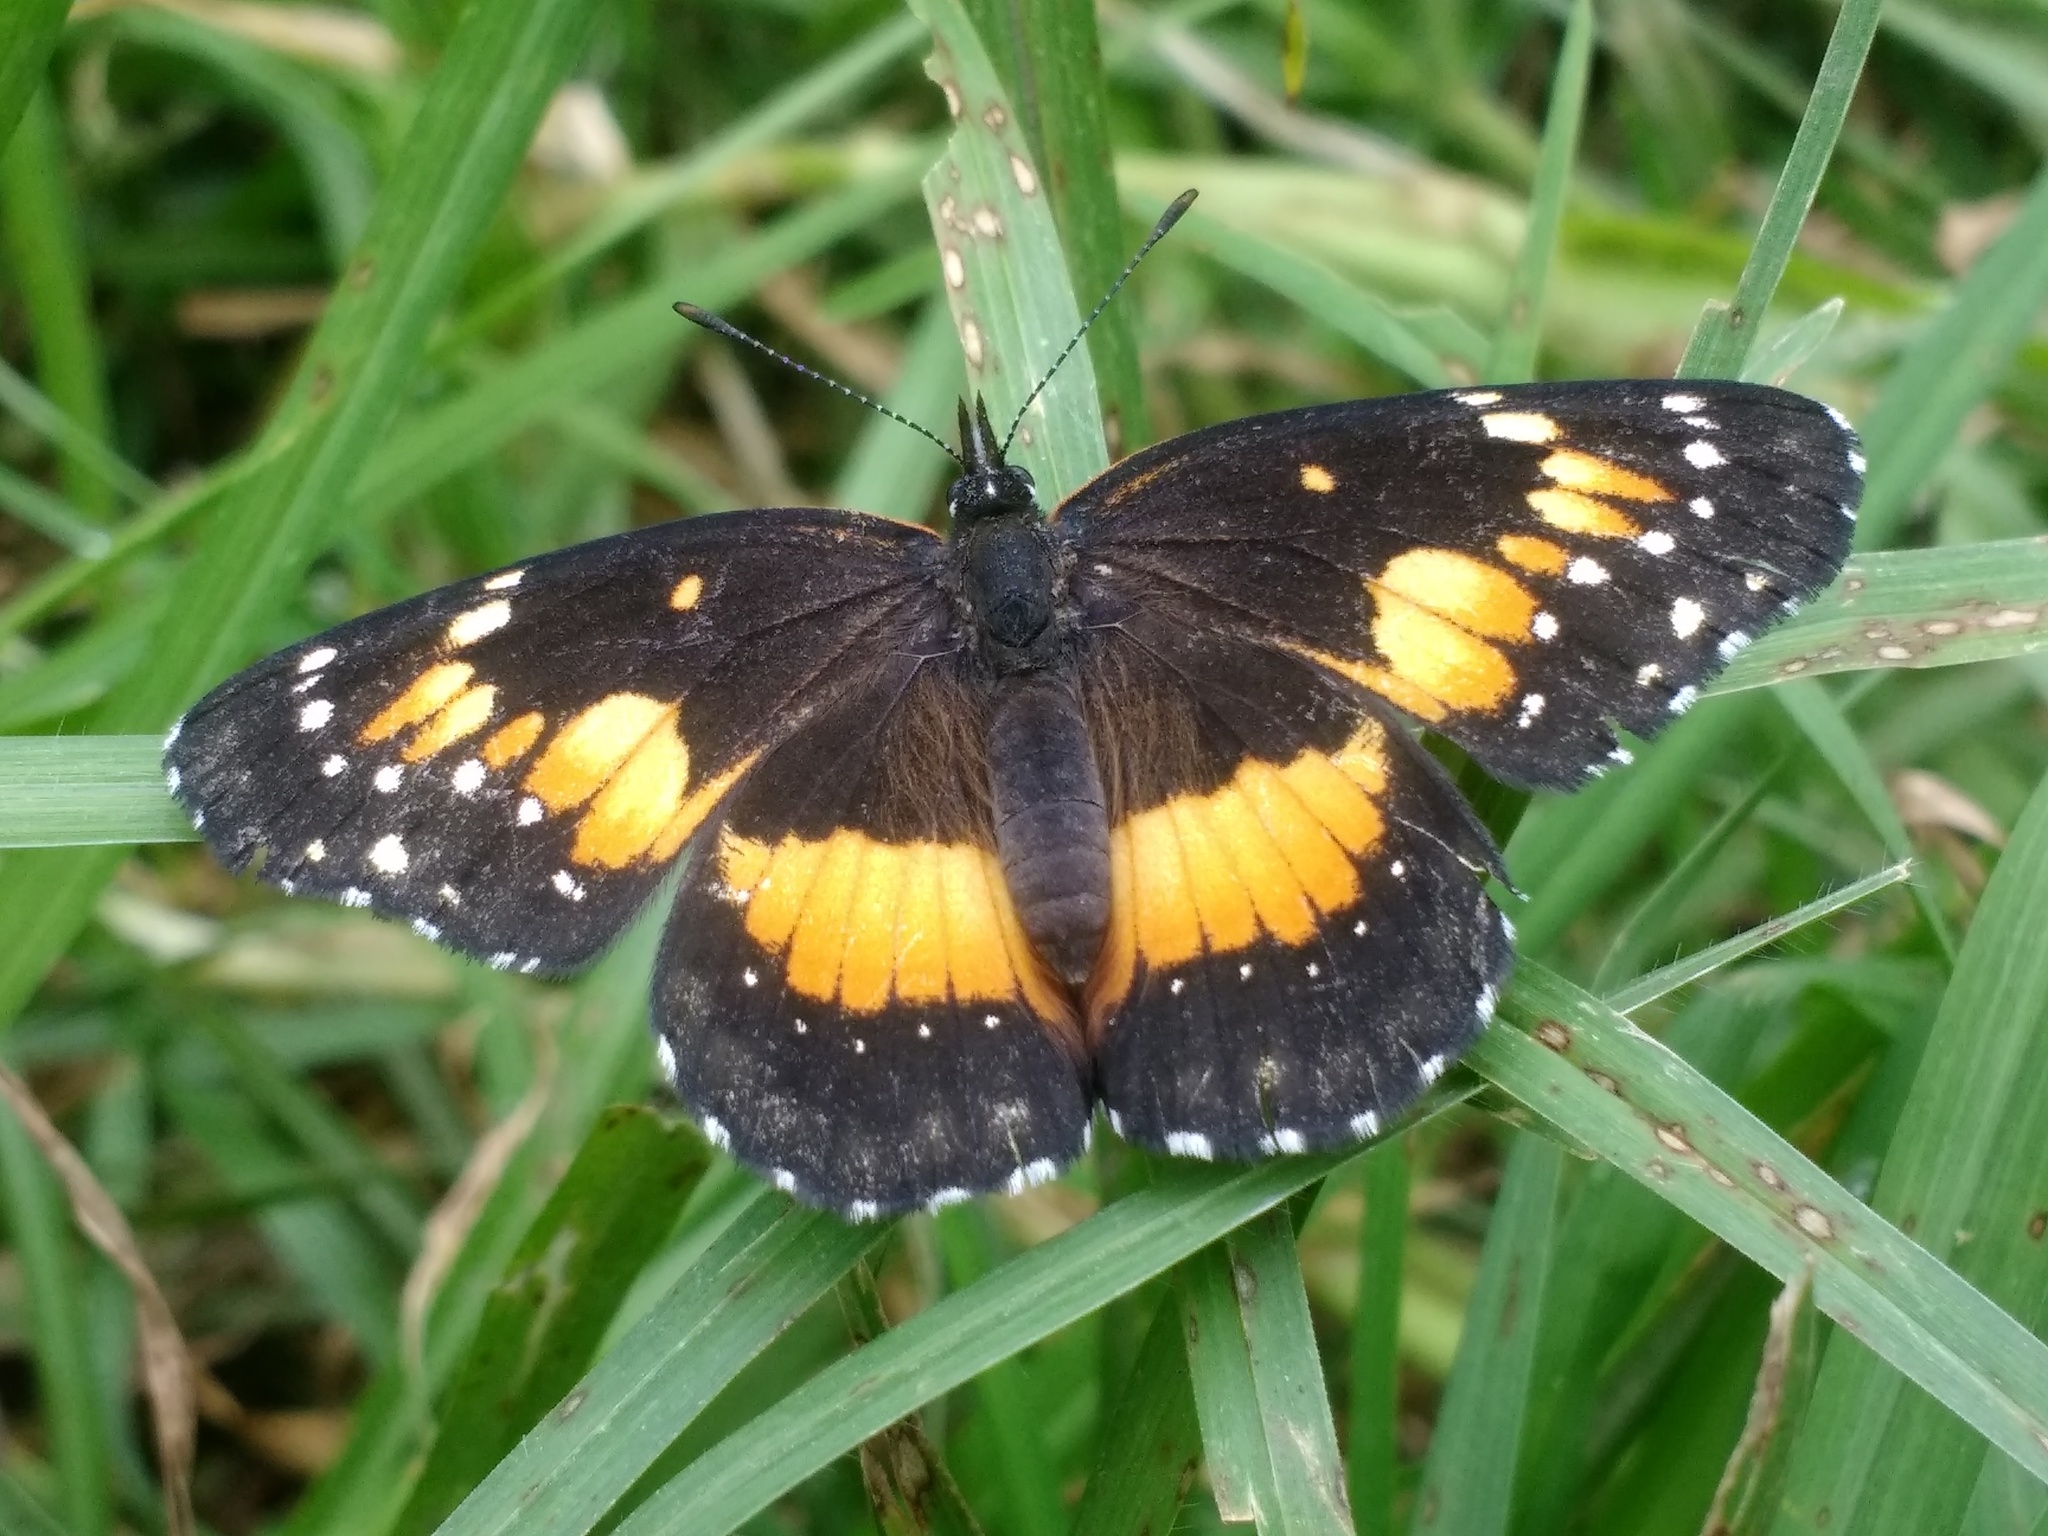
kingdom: Animalia
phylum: Arthropoda
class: Insecta
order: Lepidoptera
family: Nymphalidae
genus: Chlosyne
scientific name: Chlosyne lacinia
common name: Bordered patch
